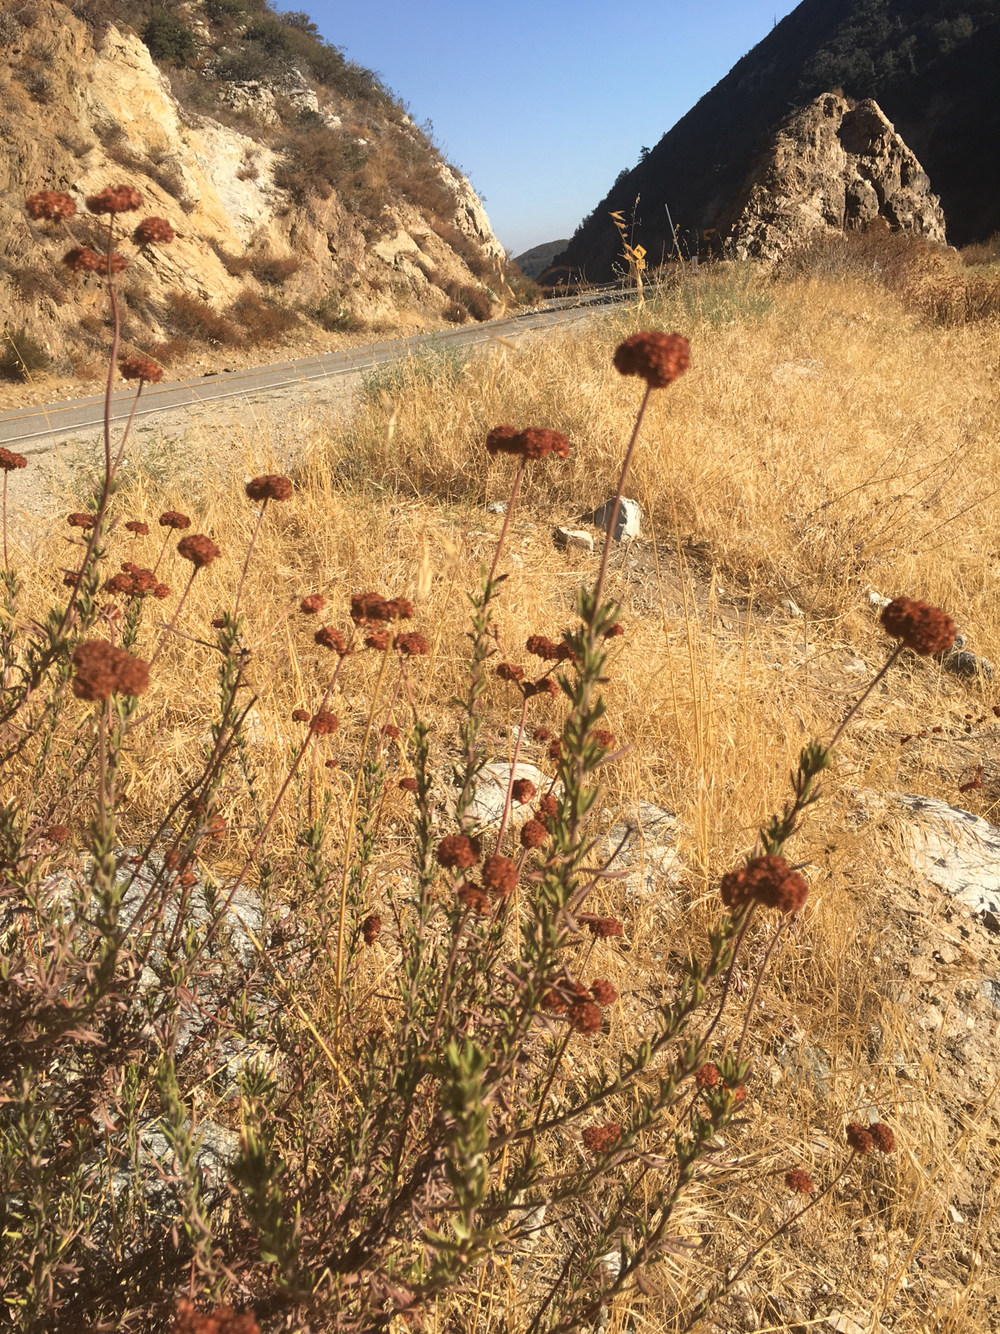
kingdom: Plantae
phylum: Tracheophyta
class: Magnoliopsida
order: Caryophyllales
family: Polygonaceae
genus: Eriogonum
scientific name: Eriogonum fasciculatum
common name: California wild buckwheat
